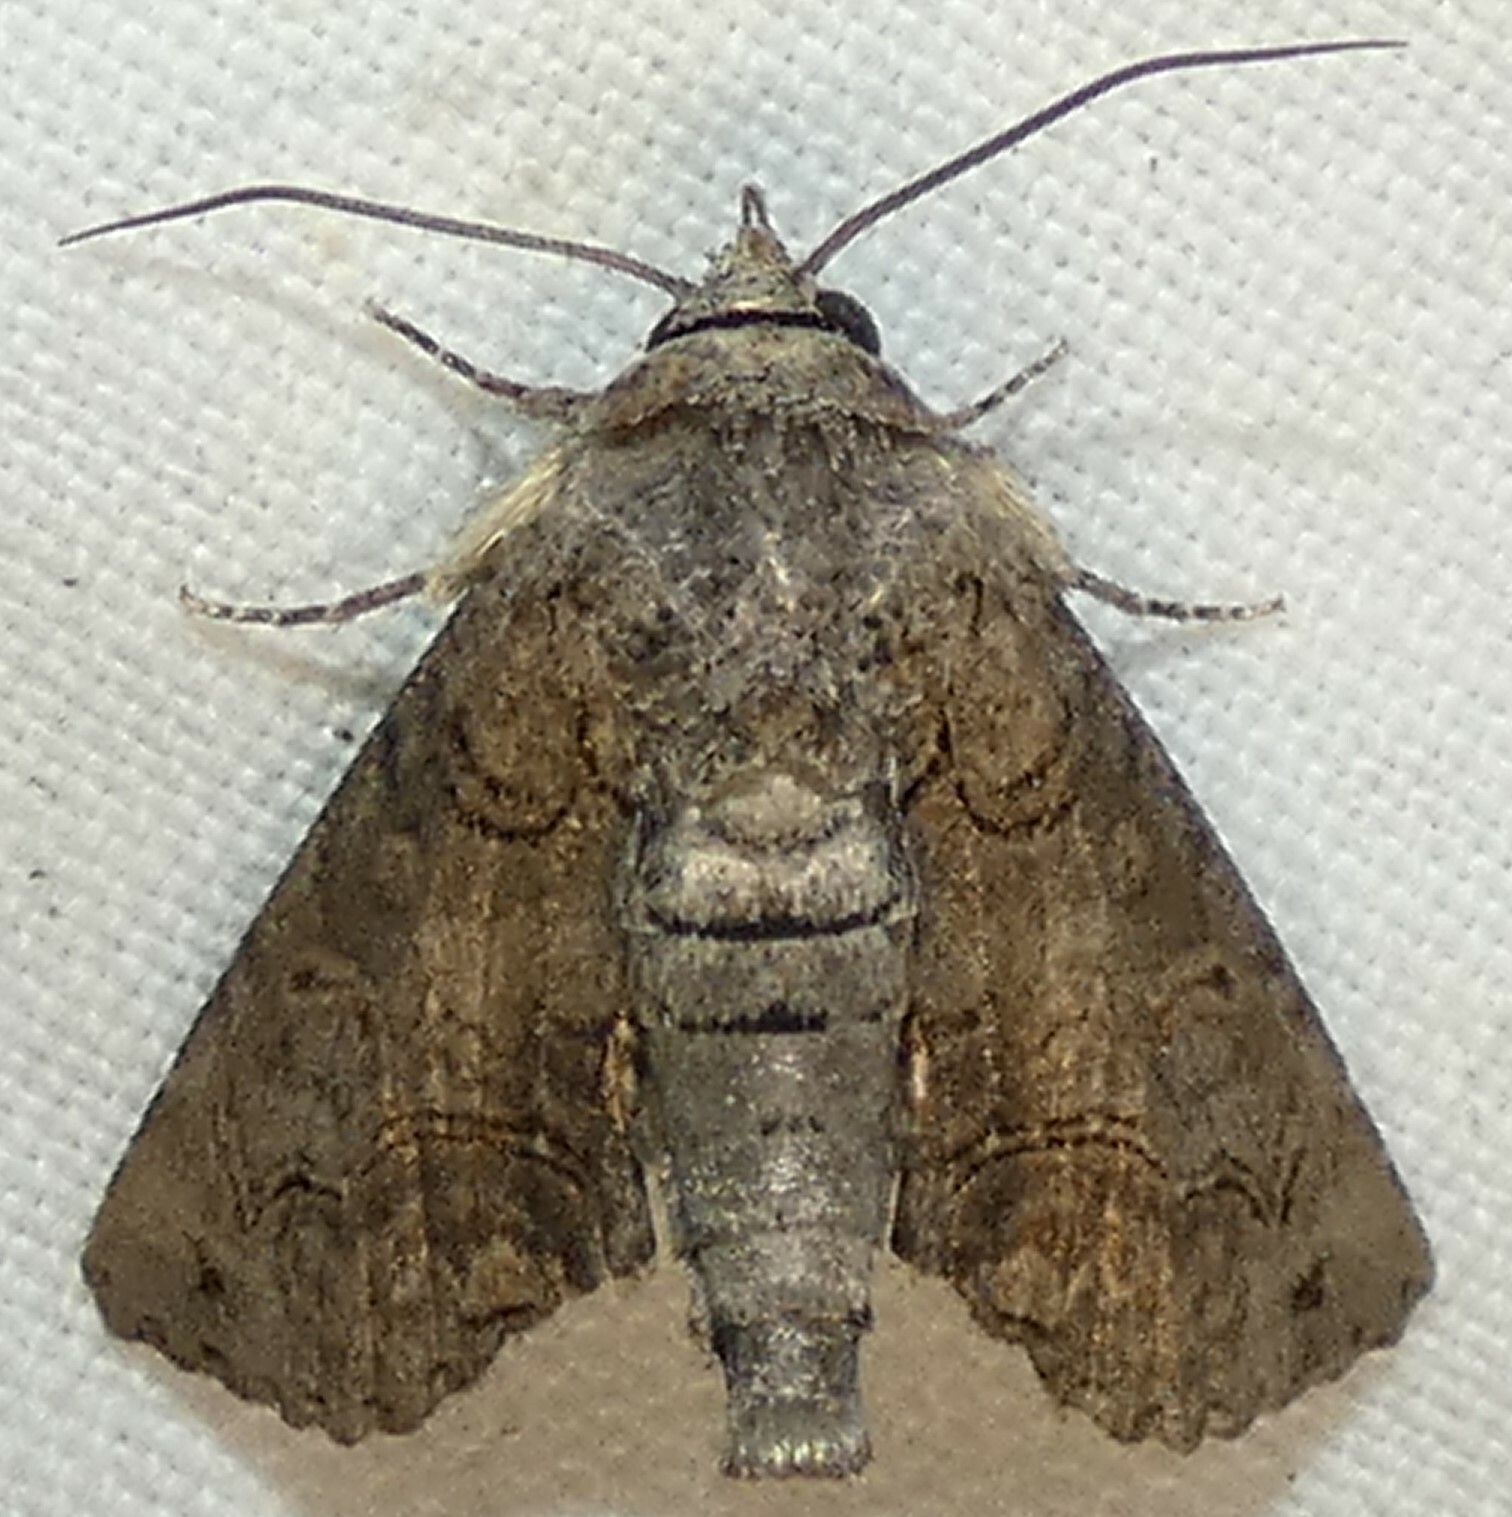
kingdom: Animalia
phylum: Arthropoda
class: Insecta
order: Lepidoptera
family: Euteliidae
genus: Paectes
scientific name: Paectes abrostoloides
